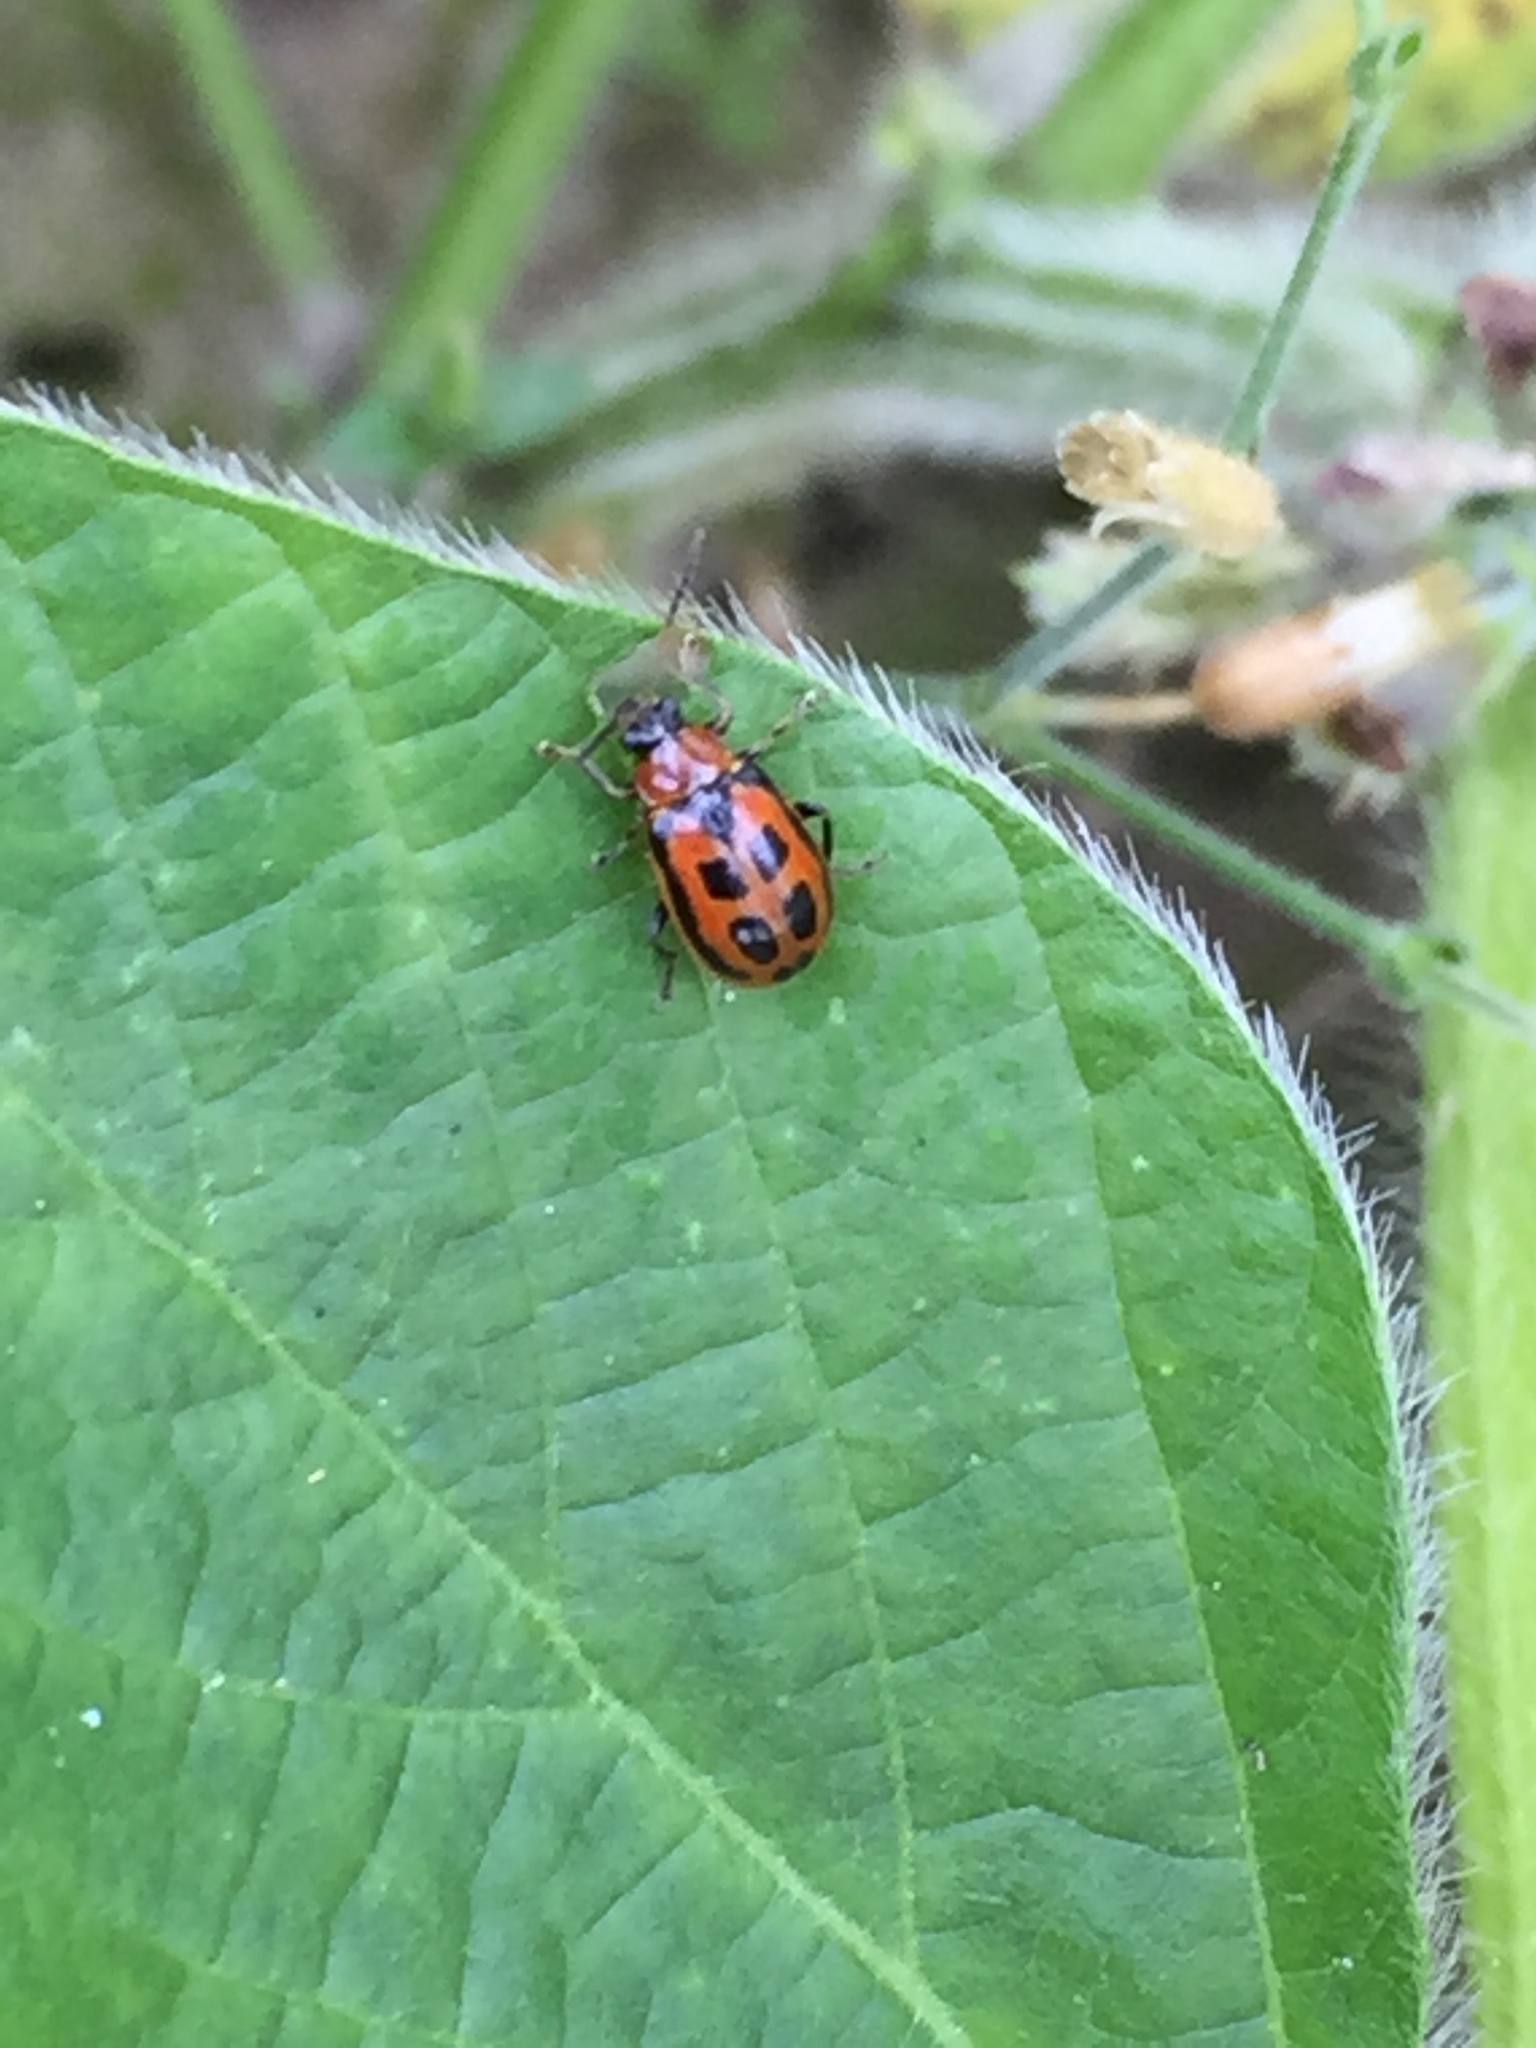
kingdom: Animalia
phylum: Arthropoda
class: Insecta
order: Coleoptera
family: Chrysomelidae
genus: Cerotoma
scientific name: Cerotoma trifurcata
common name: Bean leaf beetle
